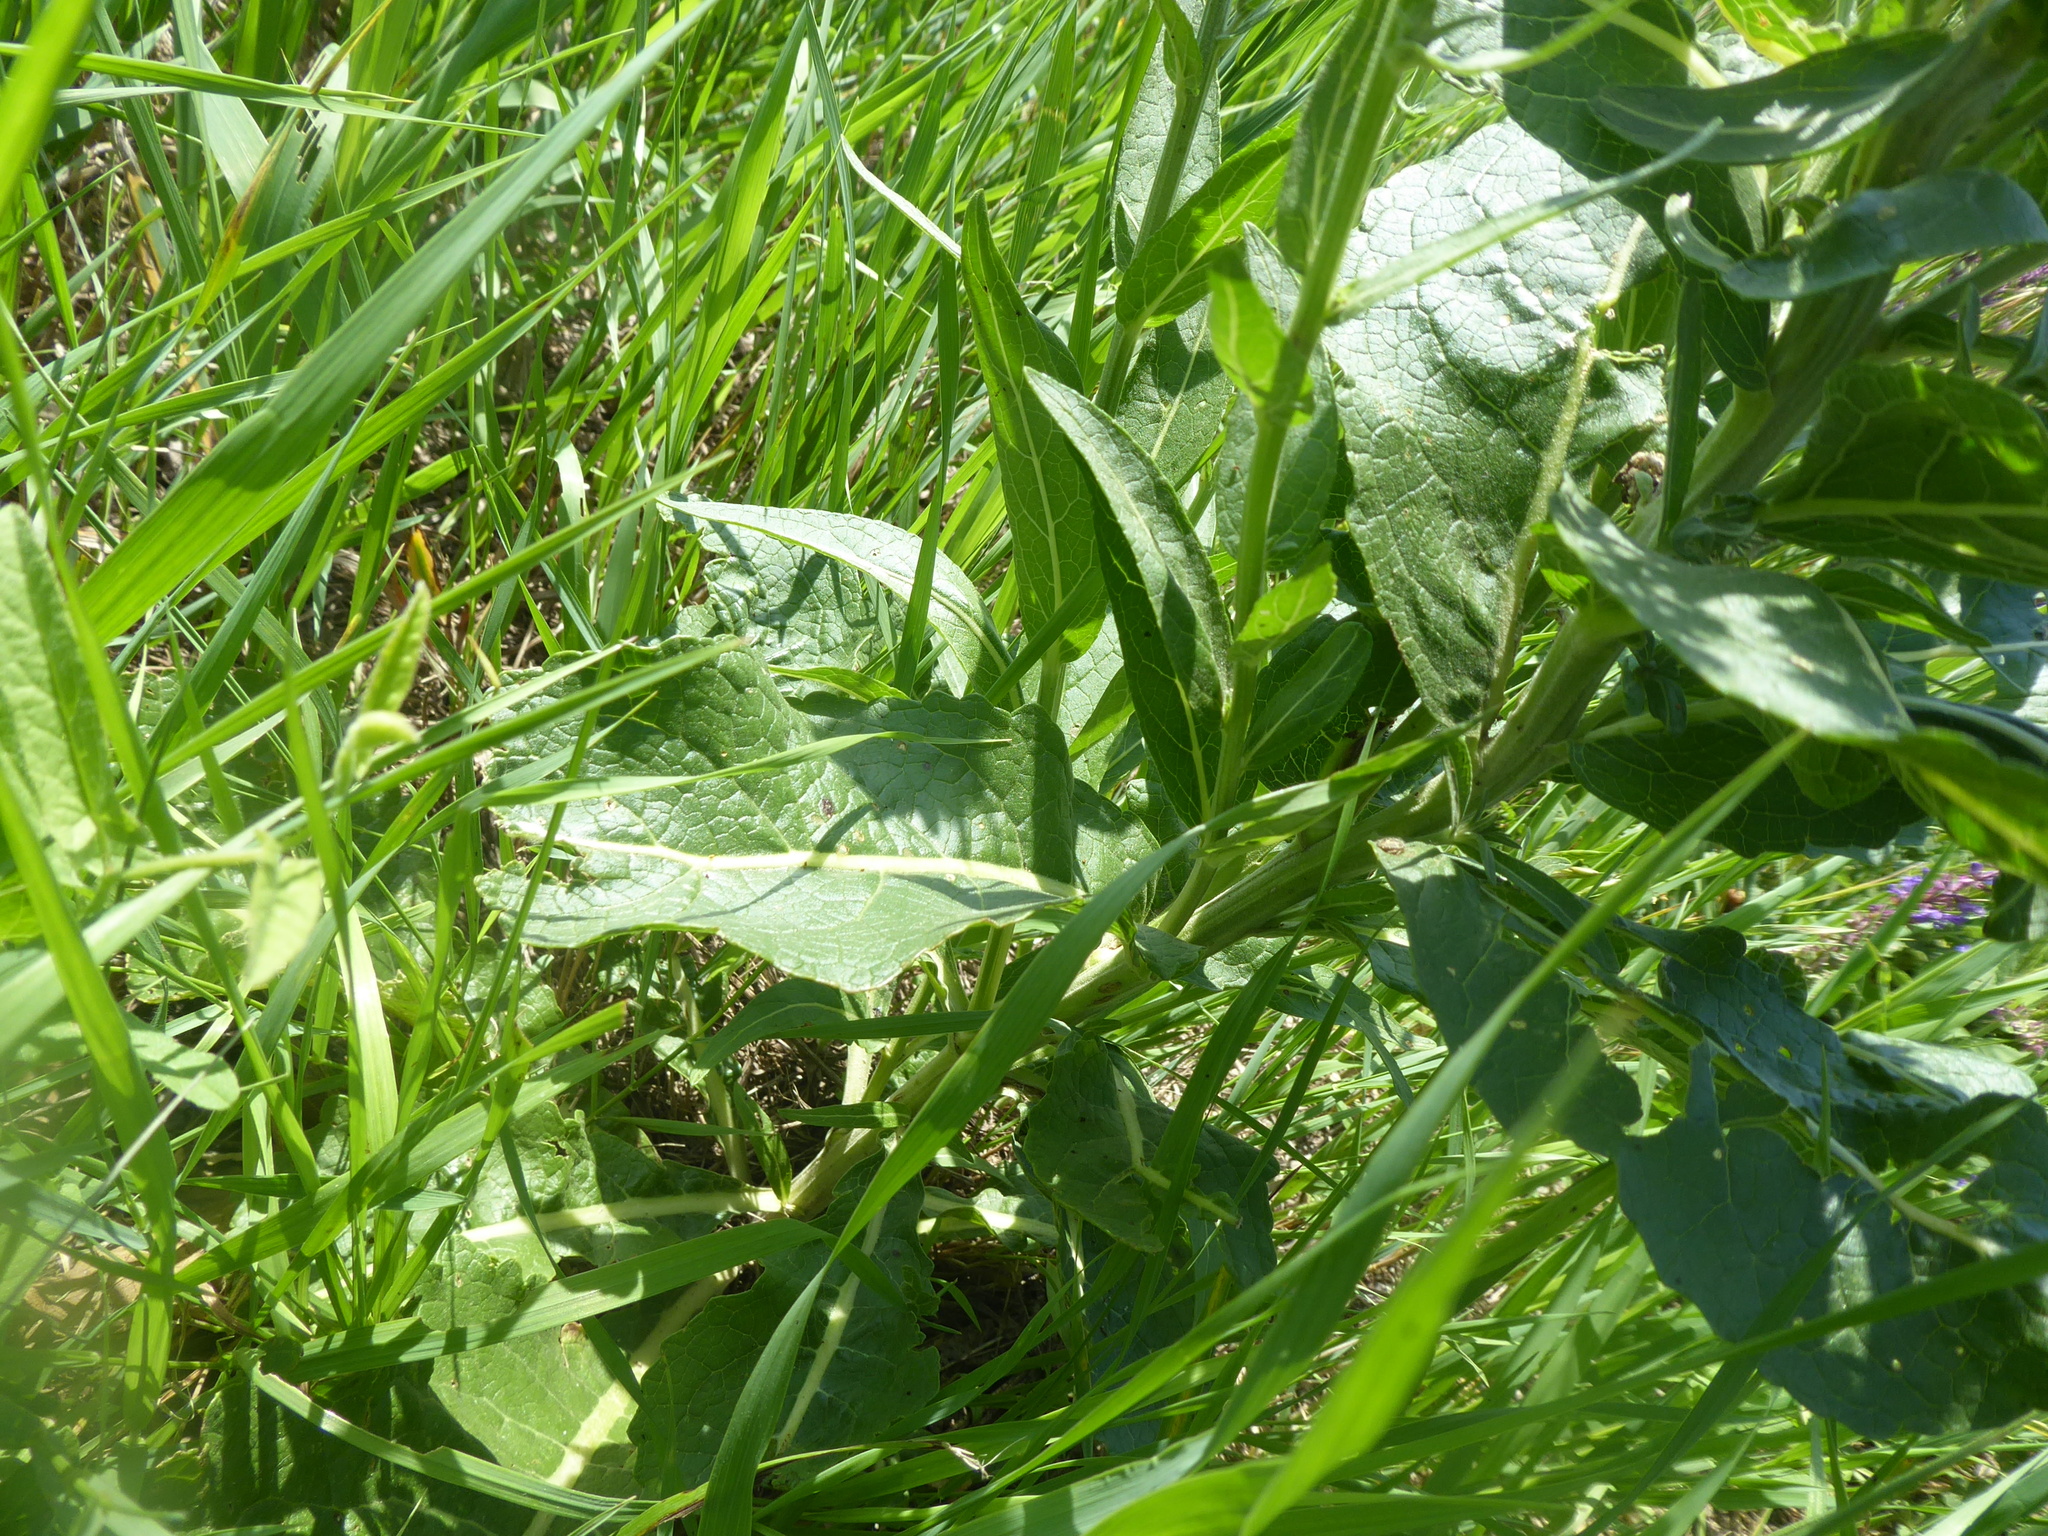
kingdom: Plantae
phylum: Tracheophyta
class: Magnoliopsida
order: Lamiales
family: Scrophulariaceae
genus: Verbascum
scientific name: Verbascum lychnitis
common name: White mullein
